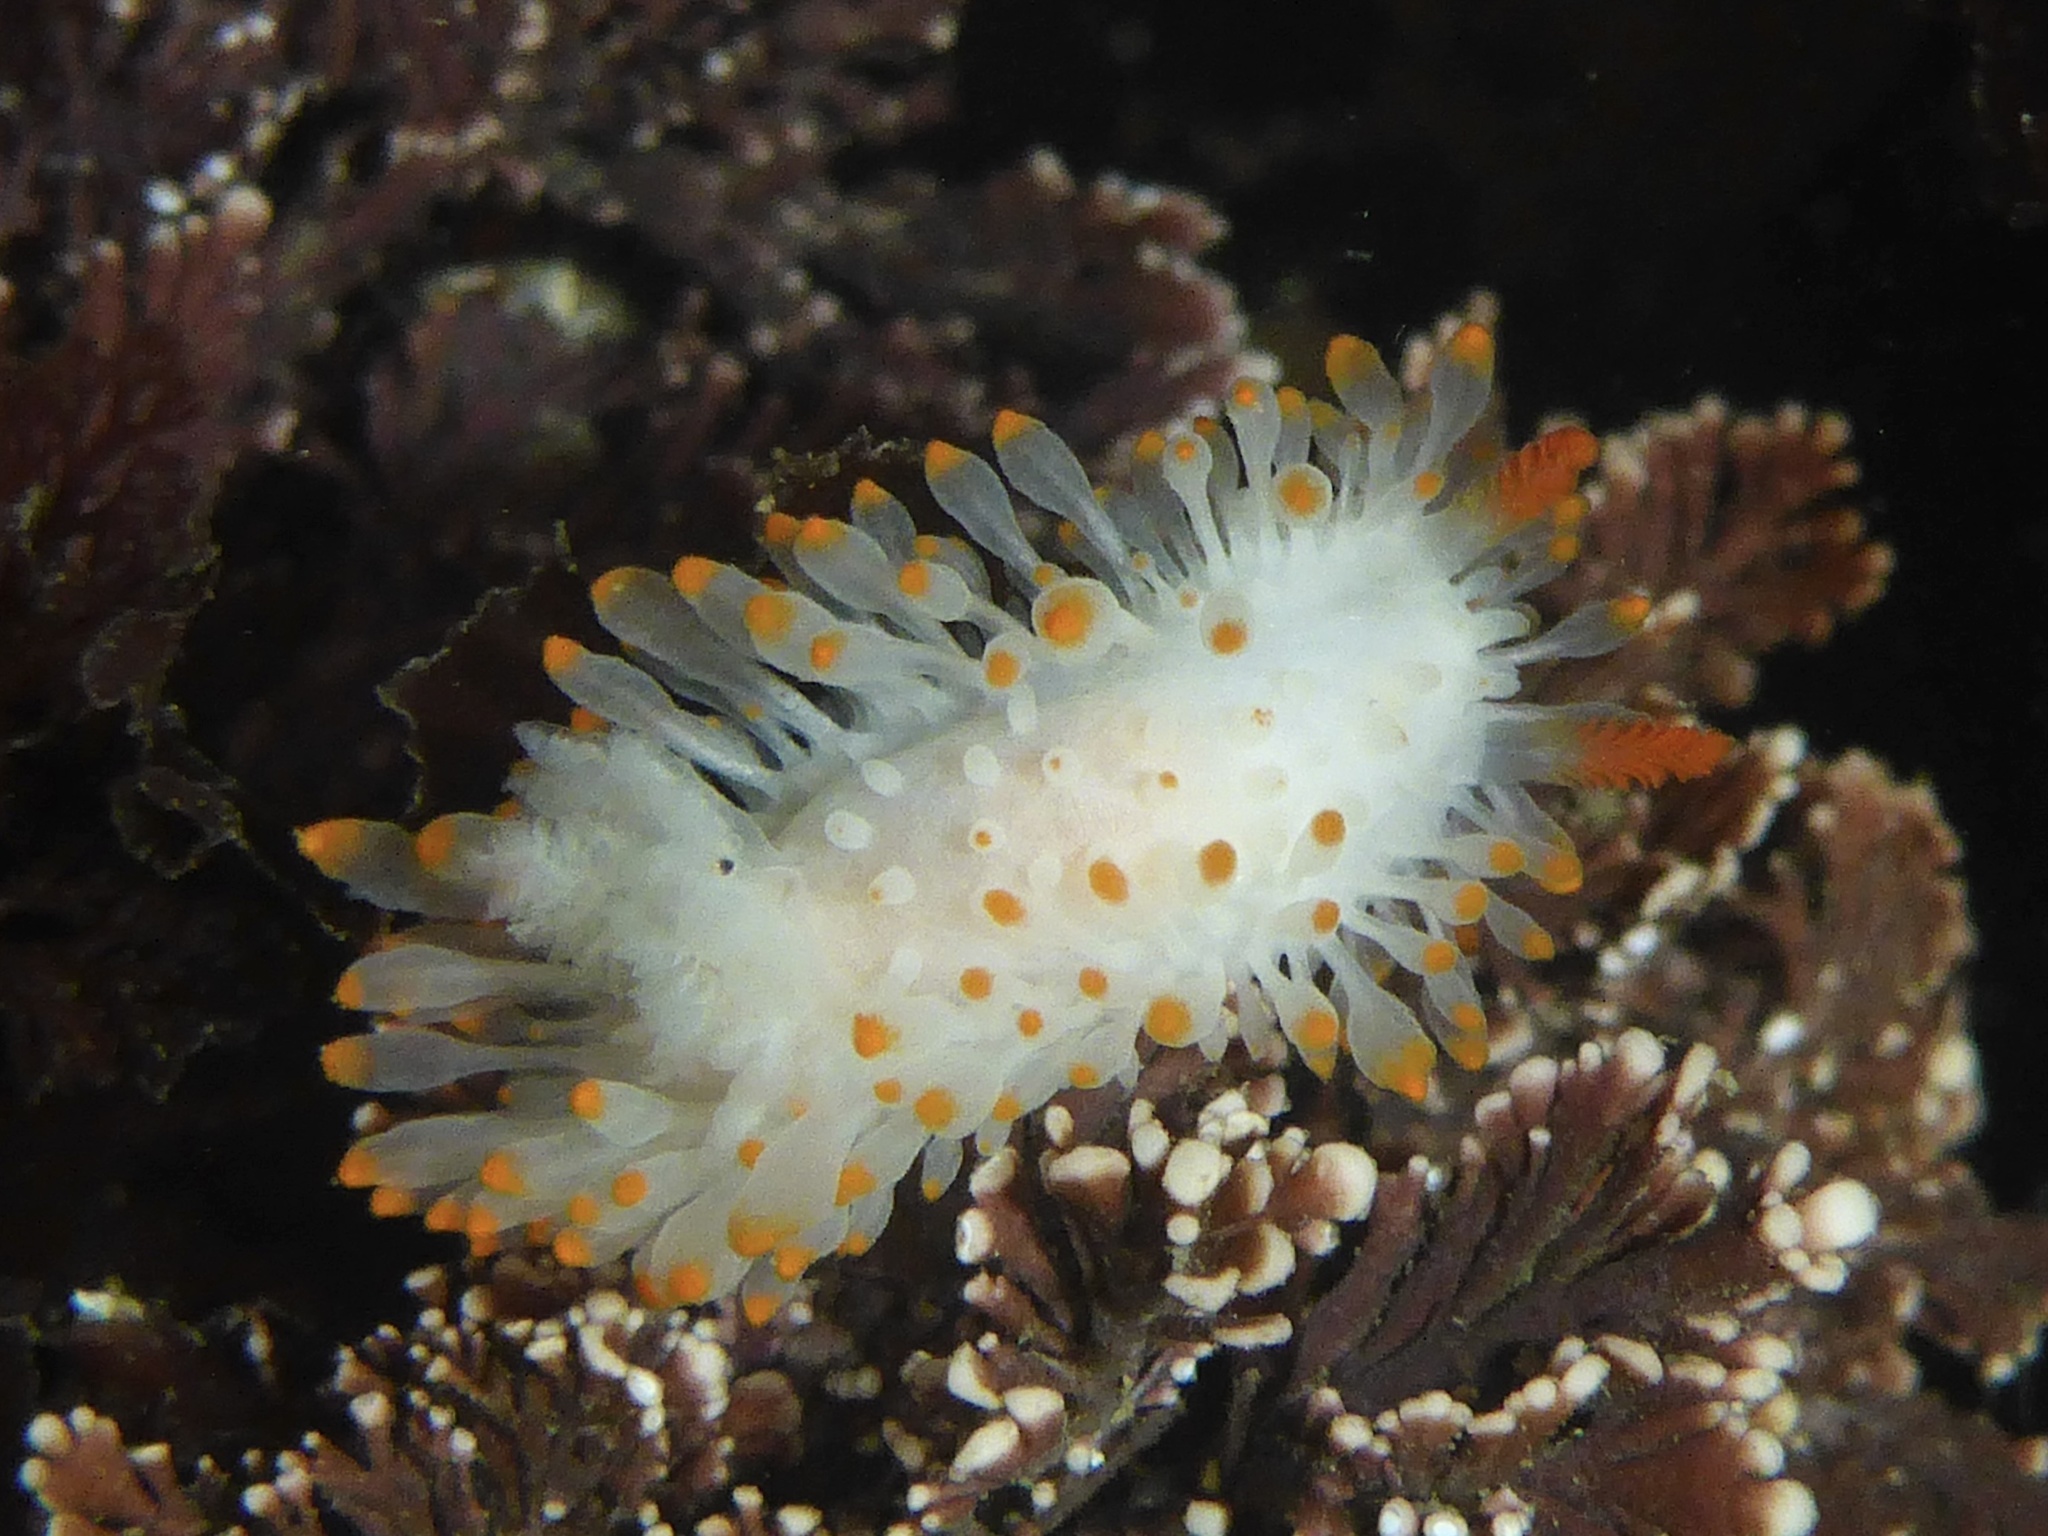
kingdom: Animalia
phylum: Mollusca
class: Gastropoda
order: Nudibranchia
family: Polyceridae
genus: Limacia
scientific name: Limacia cockerelli
